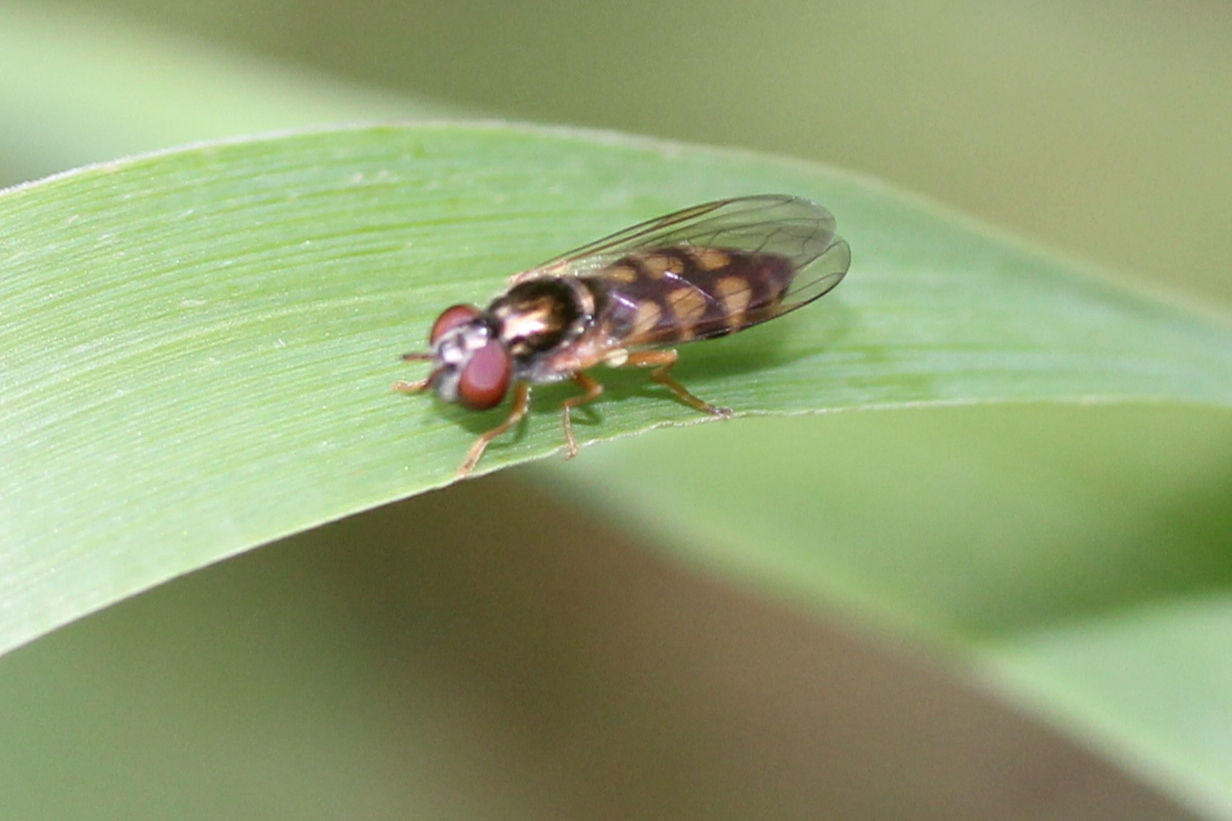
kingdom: Animalia
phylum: Arthropoda
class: Insecta
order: Diptera
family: Syrphidae
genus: Melanostoma
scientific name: Melanostoma mellina
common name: Hover fly
